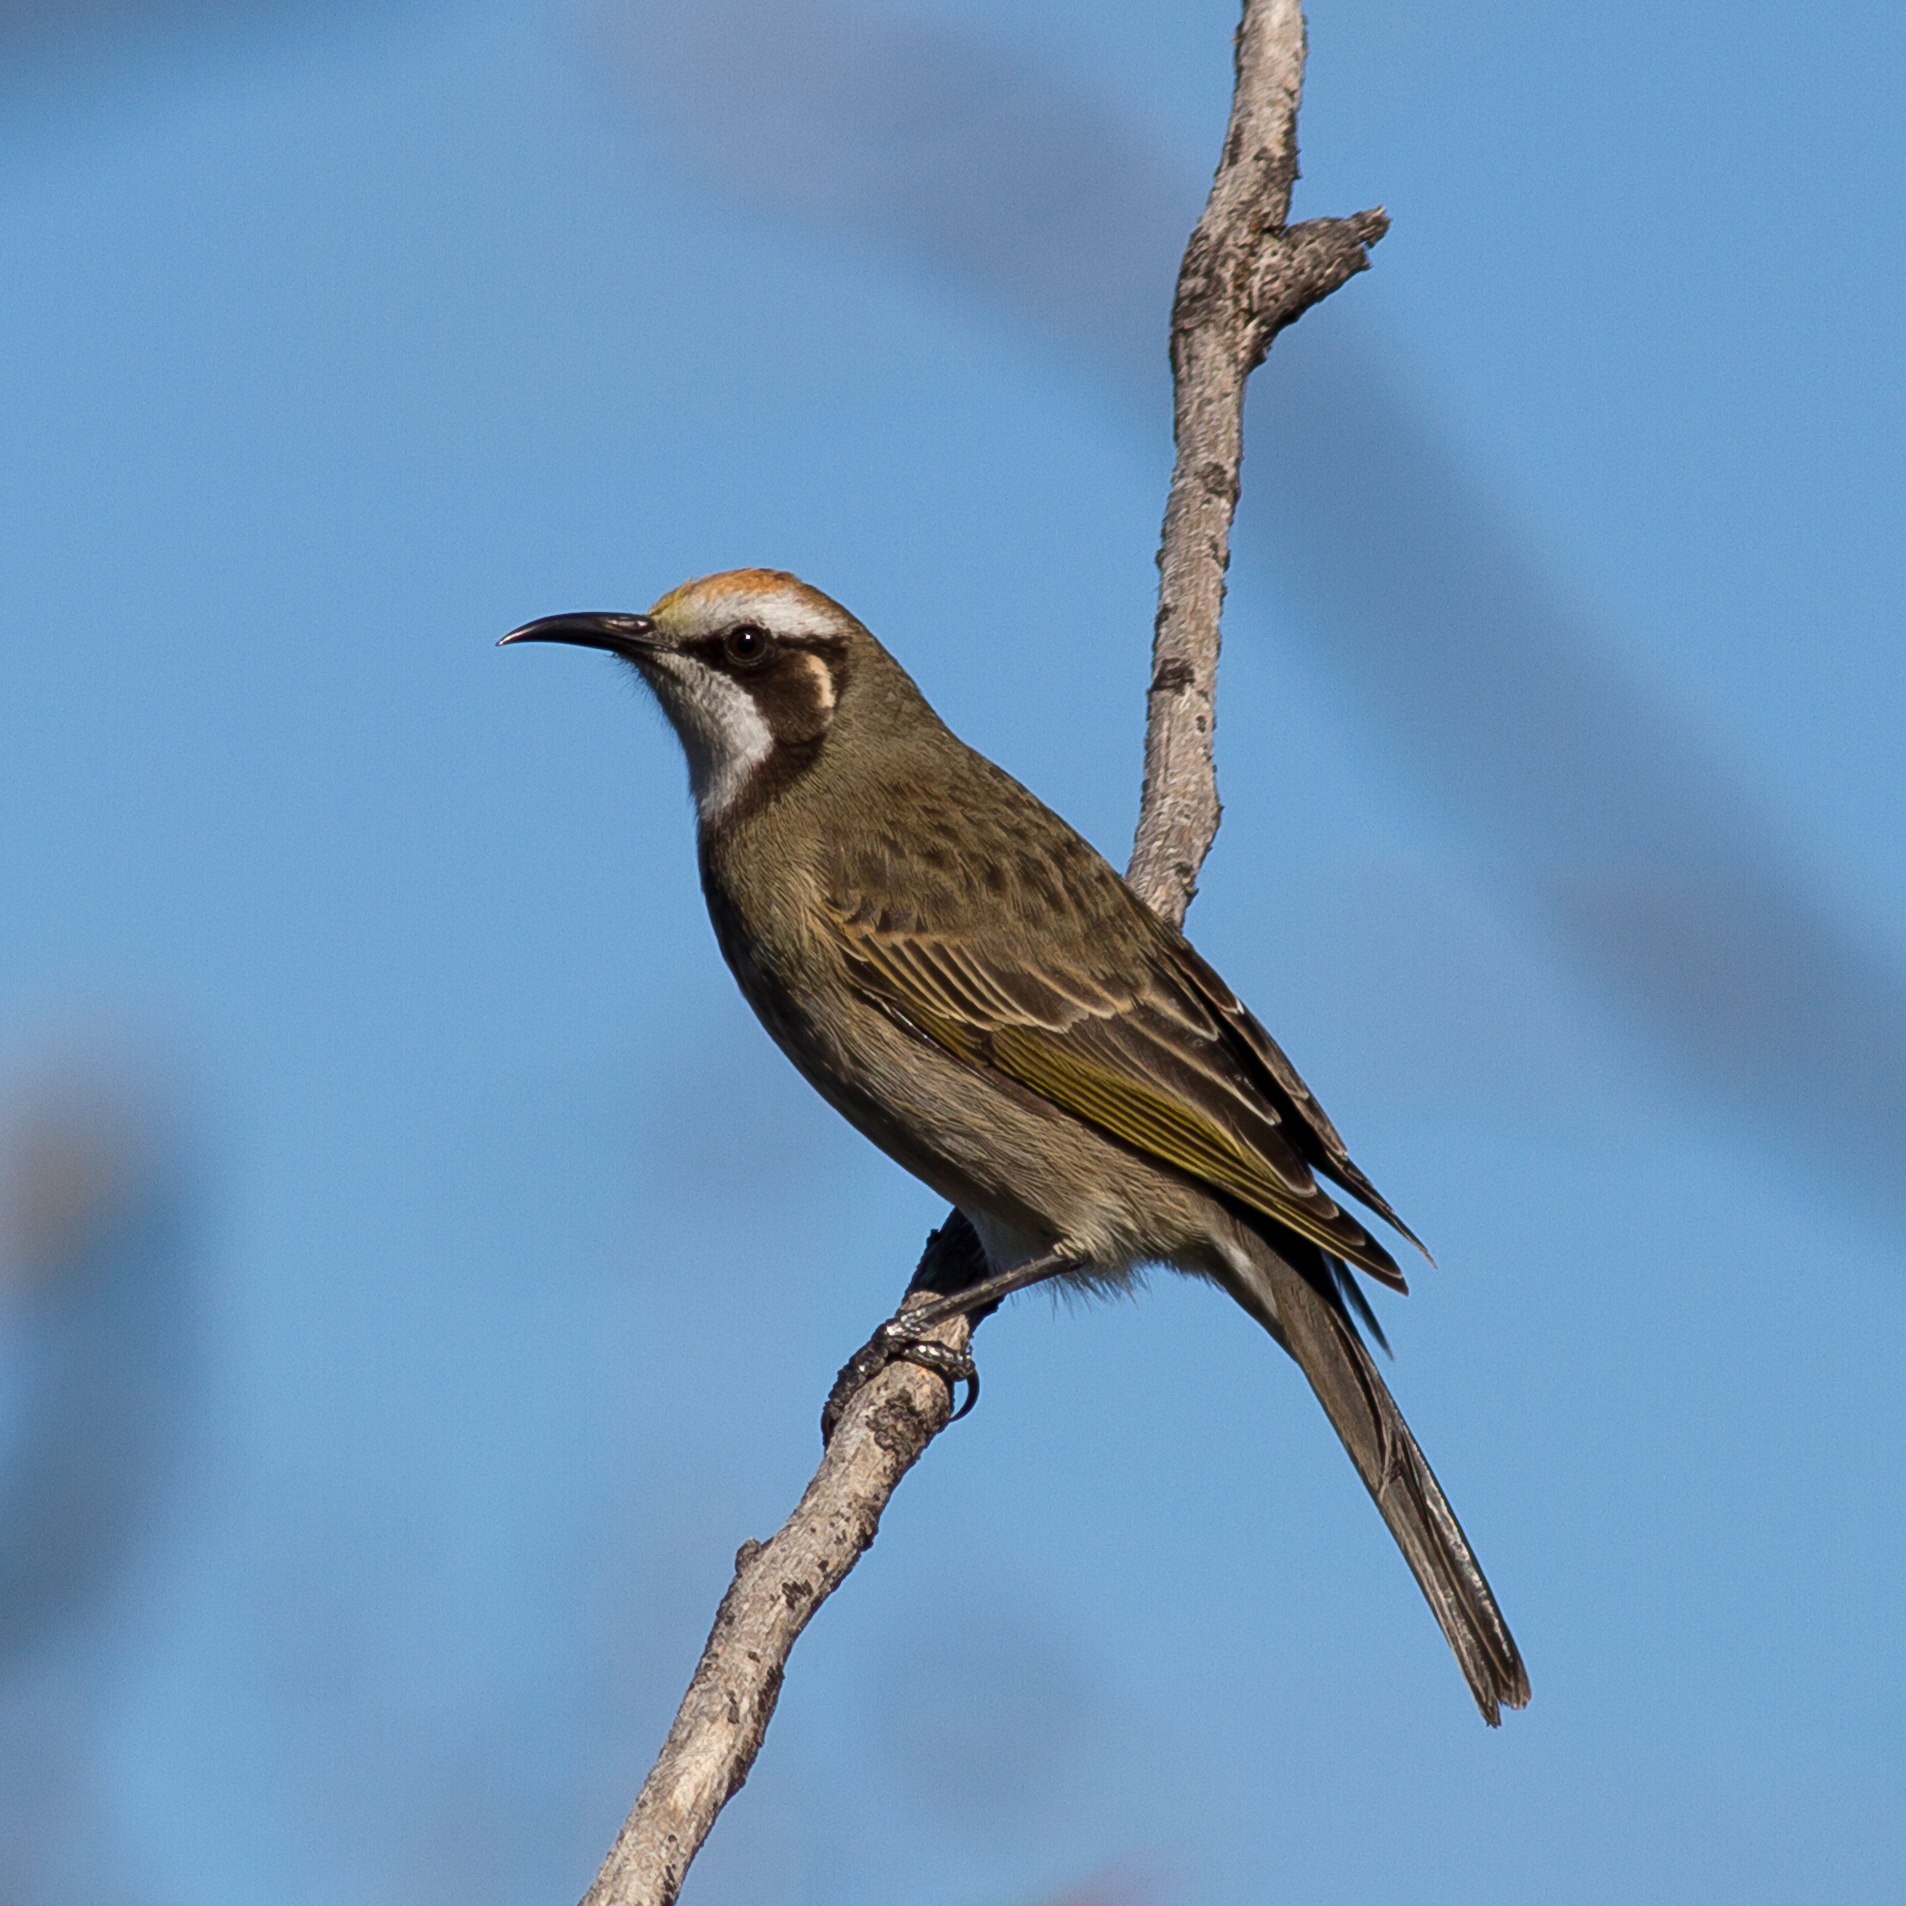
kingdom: Animalia
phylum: Chordata
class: Aves
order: Passeriformes
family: Meliphagidae
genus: Gliciphila
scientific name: Gliciphila melanops
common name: Tawny-crowned honeyeater
